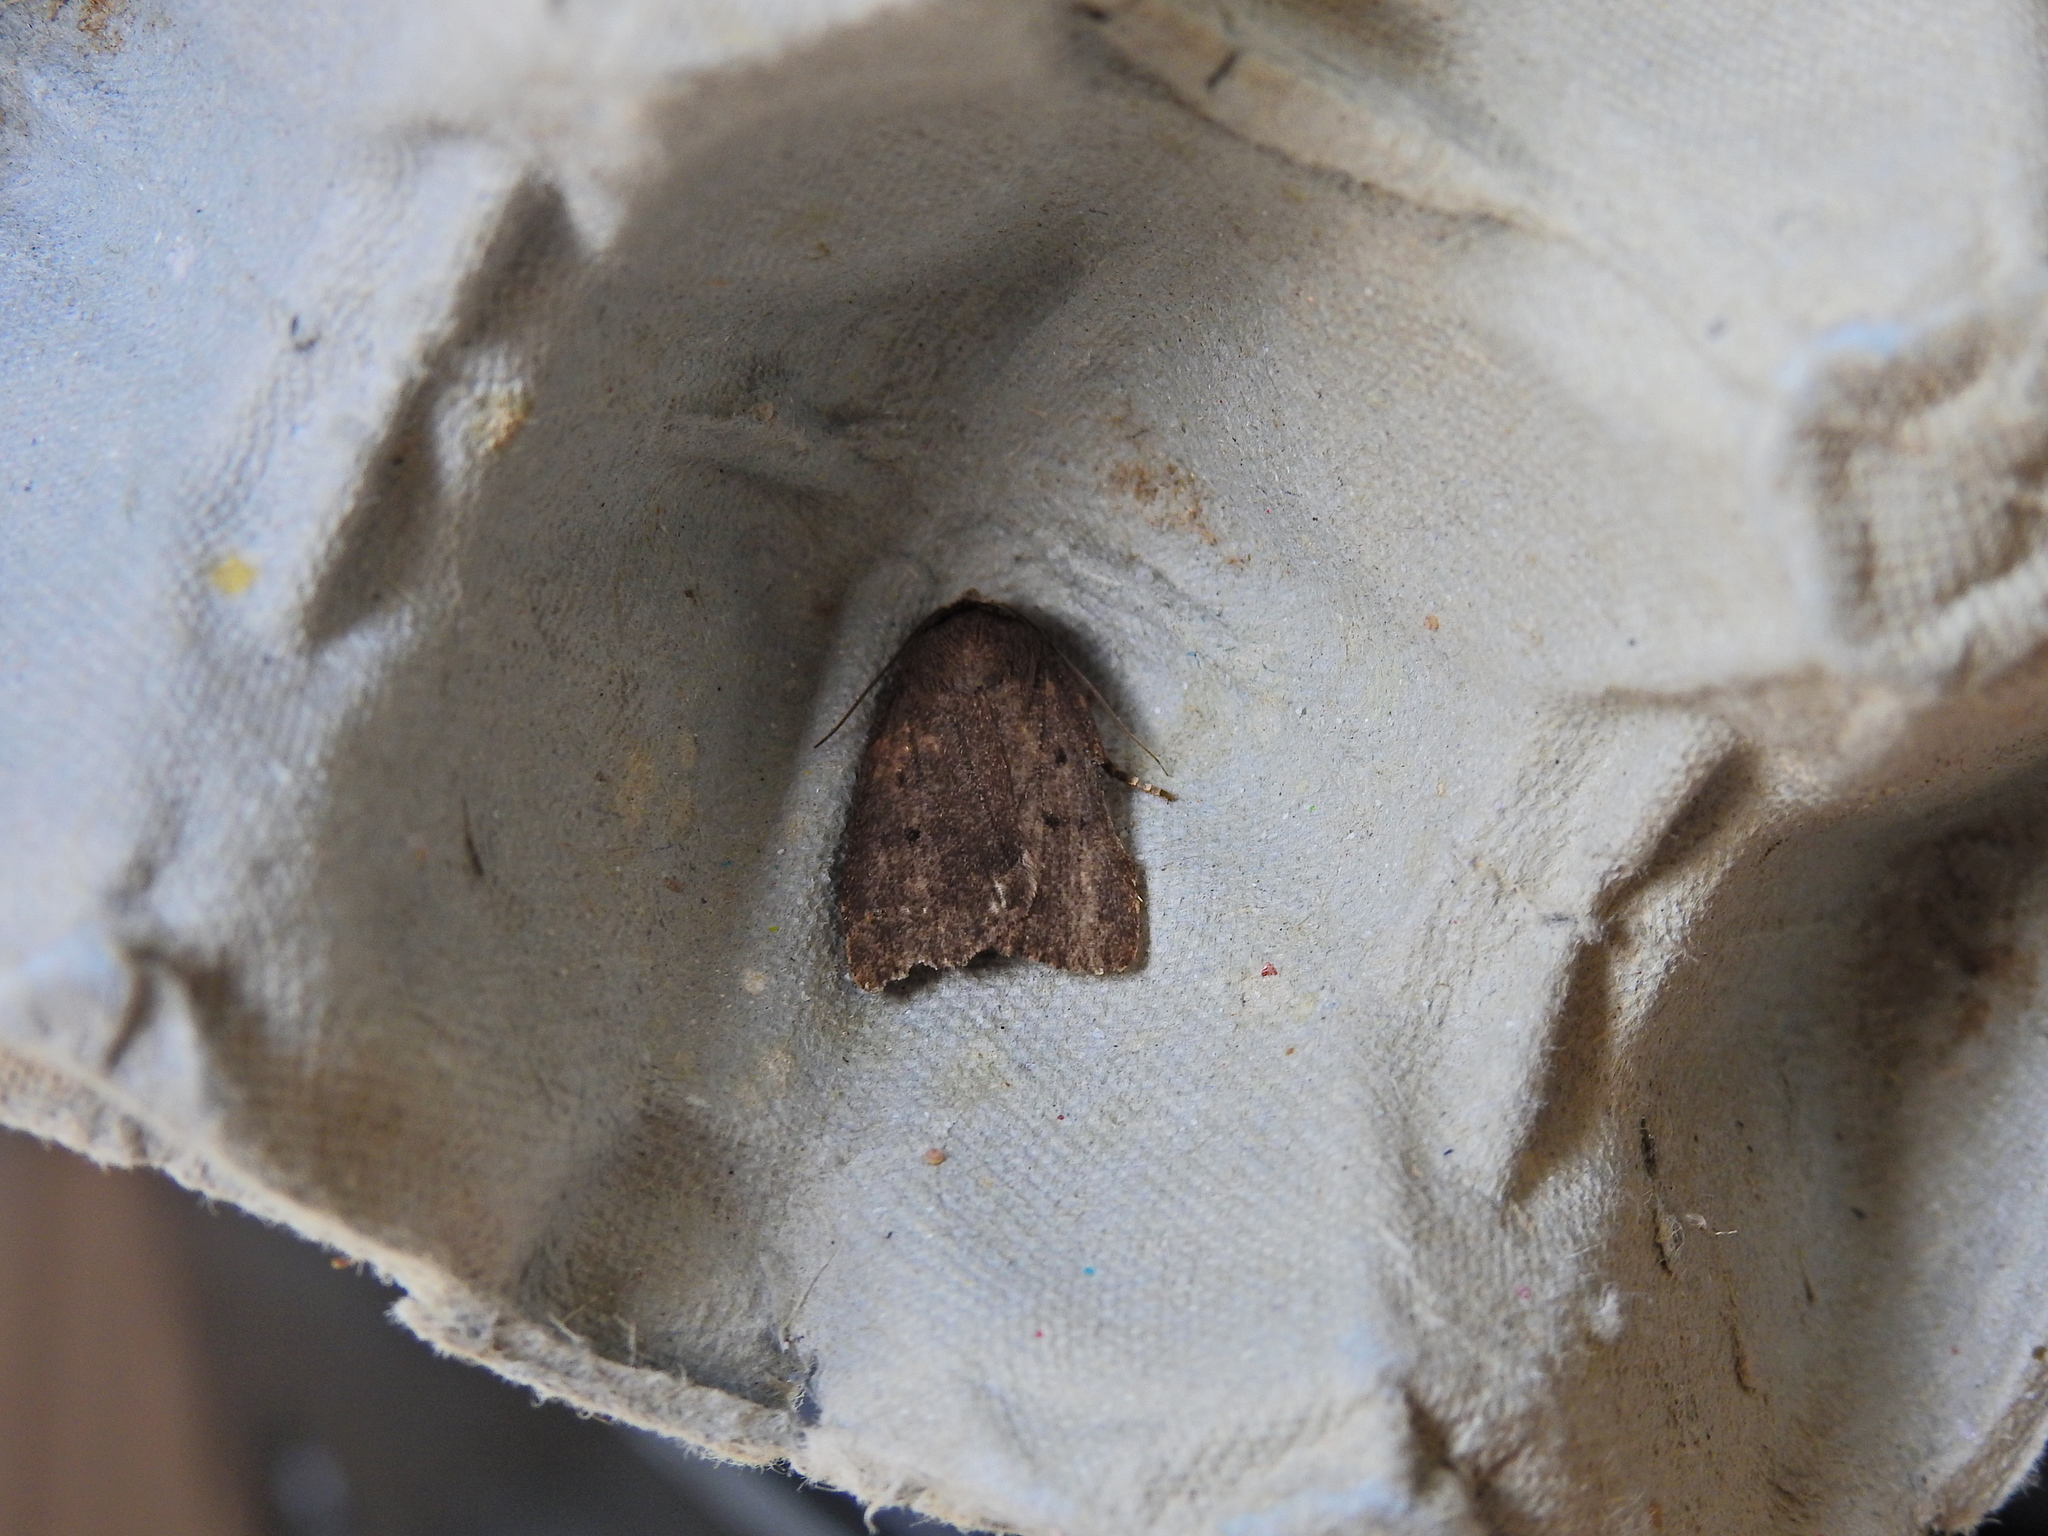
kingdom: Animalia
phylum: Arthropoda
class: Insecta
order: Lepidoptera
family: Noctuidae
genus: Amphipyra
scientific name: Amphipyra tragopoginis
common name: Mouse moth
